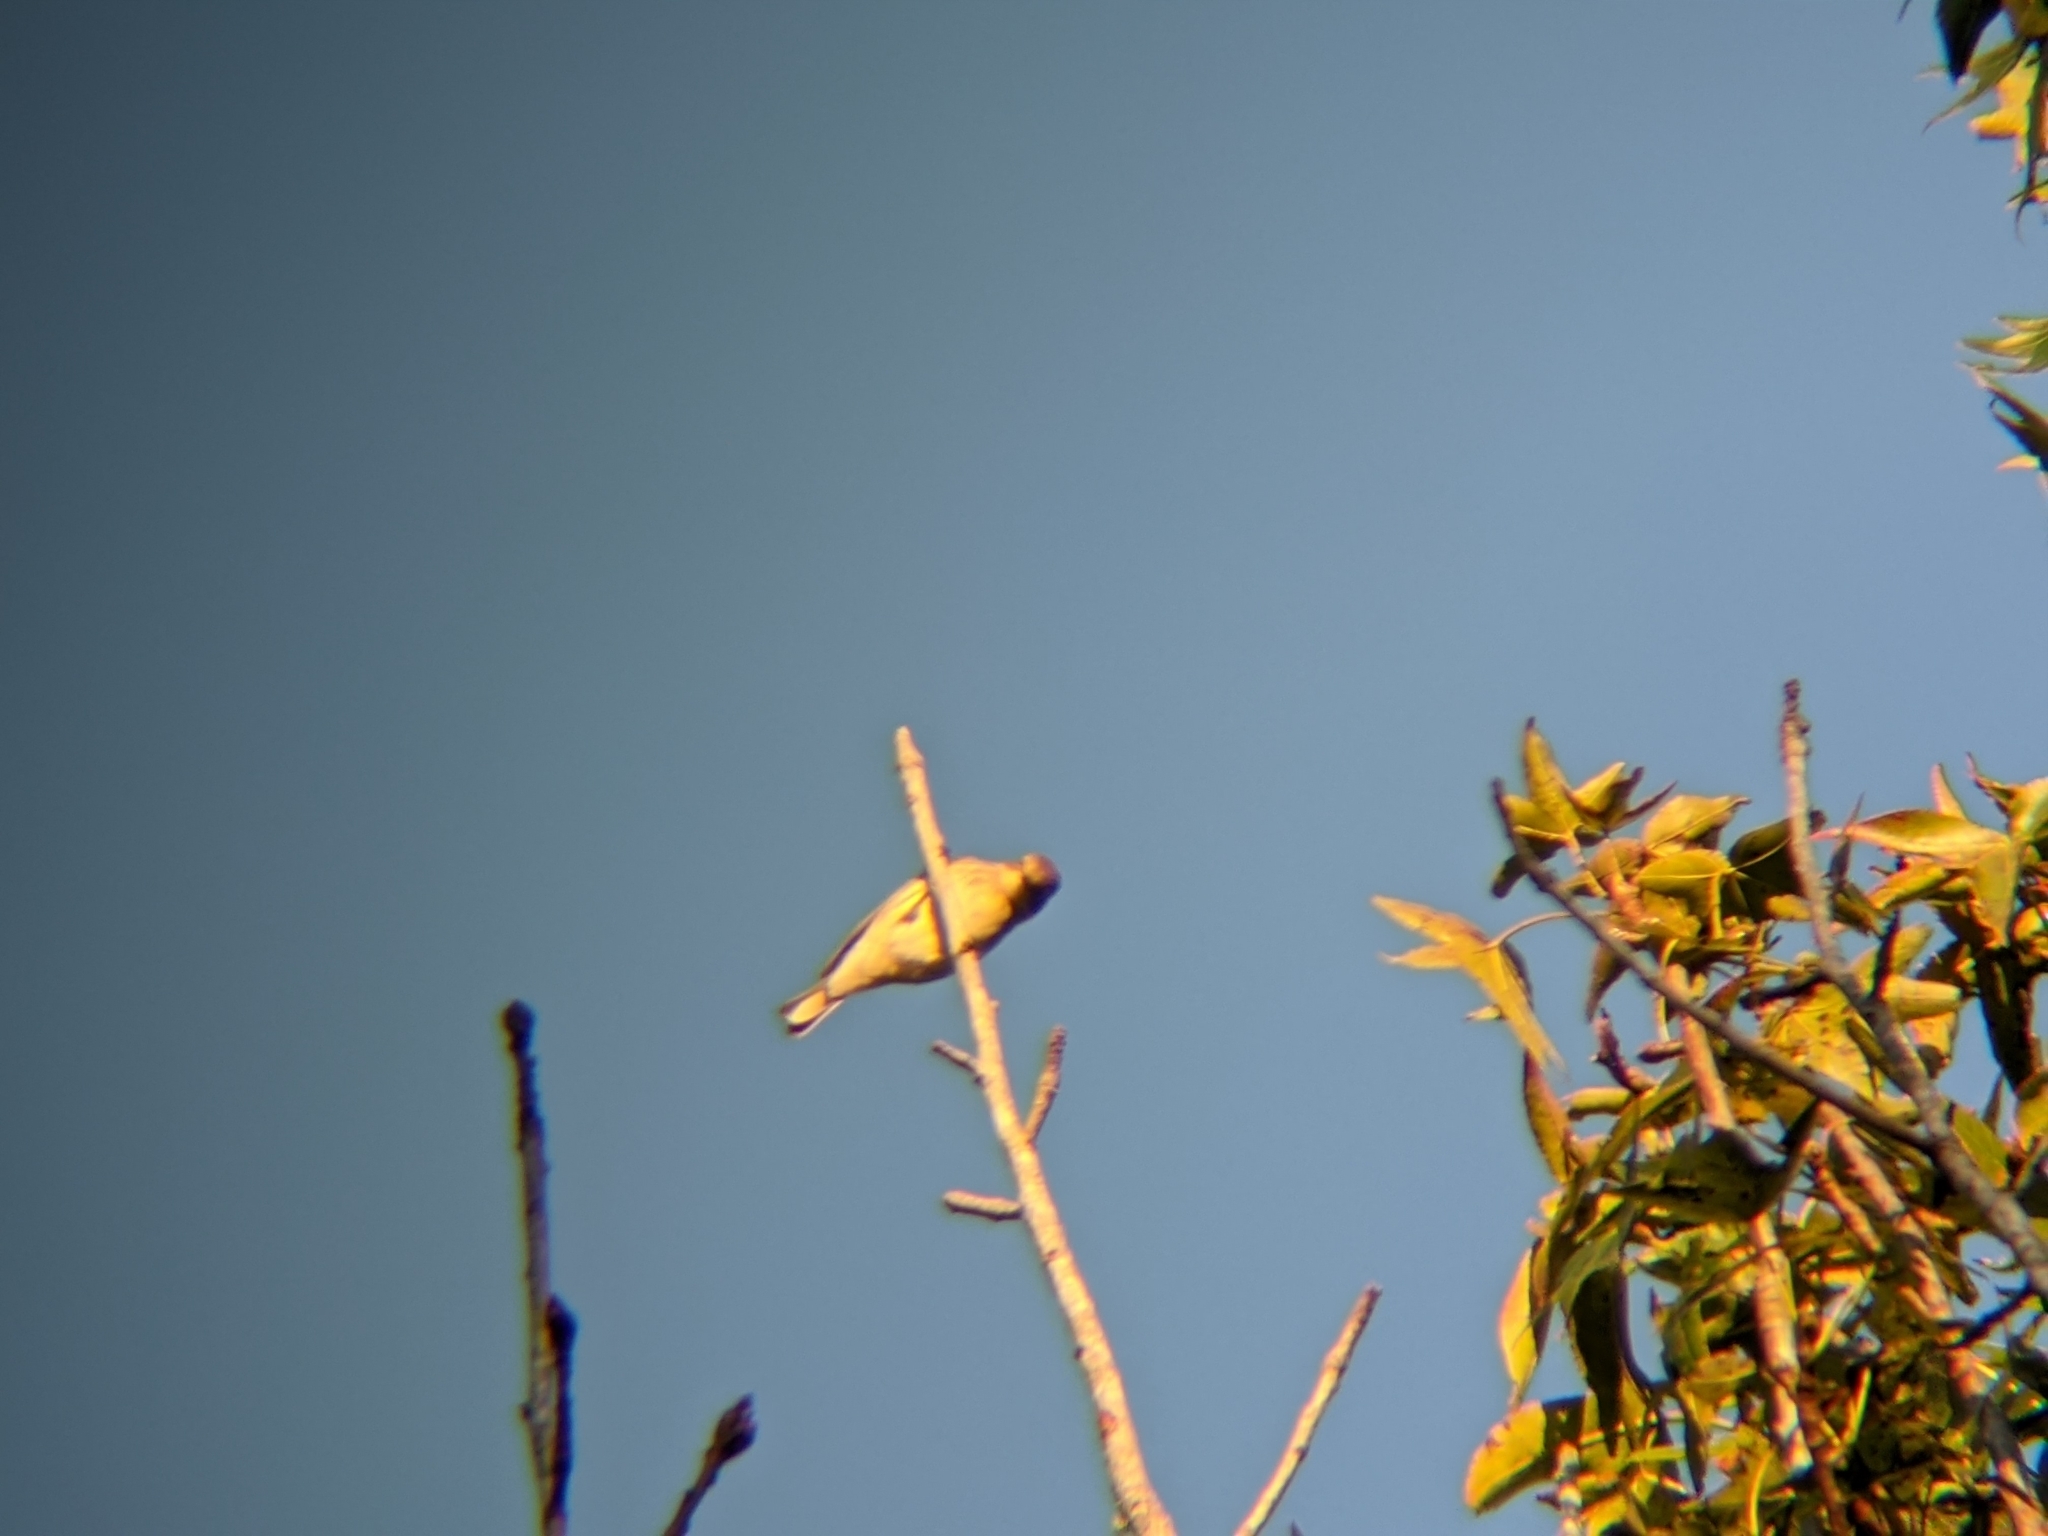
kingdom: Animalia
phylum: Chordata
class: Aves
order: Passeriformes
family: Parulidae
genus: Setophaga
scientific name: Setophaga coronata
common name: Myrtle warbler
